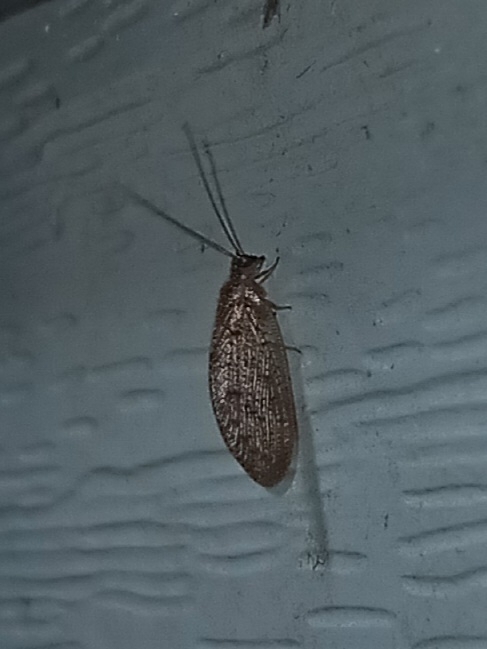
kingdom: Animalia
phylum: Arthropoda
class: Insecta
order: Neuroptera
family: Hemerobiidae
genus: Hemerobius
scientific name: Hemerobius stigma
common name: Brown pine lacewing
